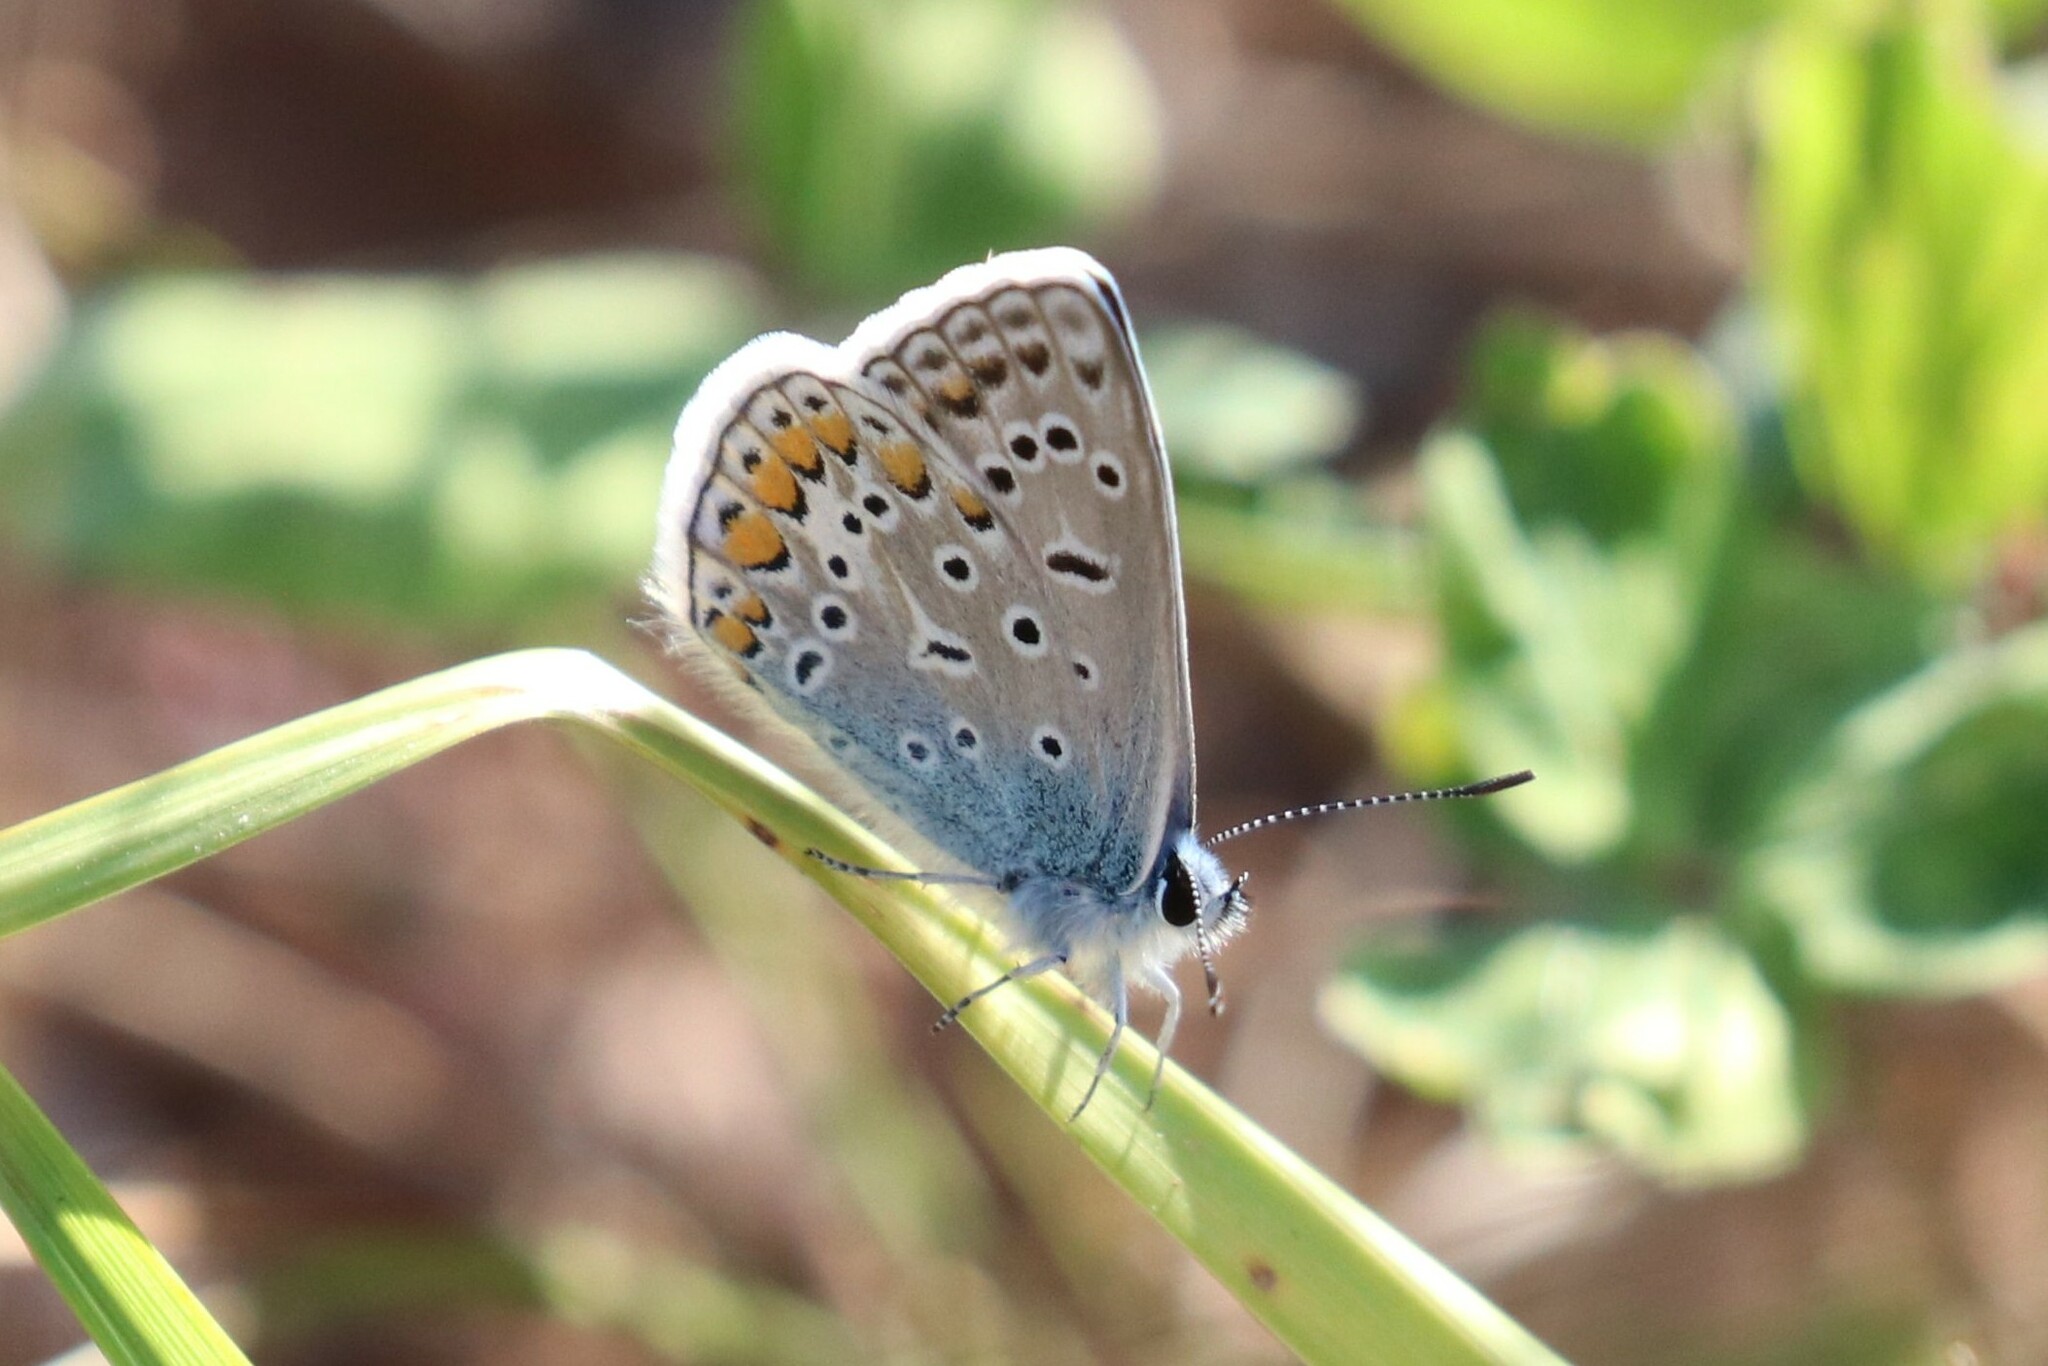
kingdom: Animalia
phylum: Arthropoda
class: Insecta
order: Lepidoptera
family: Lycaenidae
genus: Polyommatus
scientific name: Polyommatus icarus
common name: Common blue
